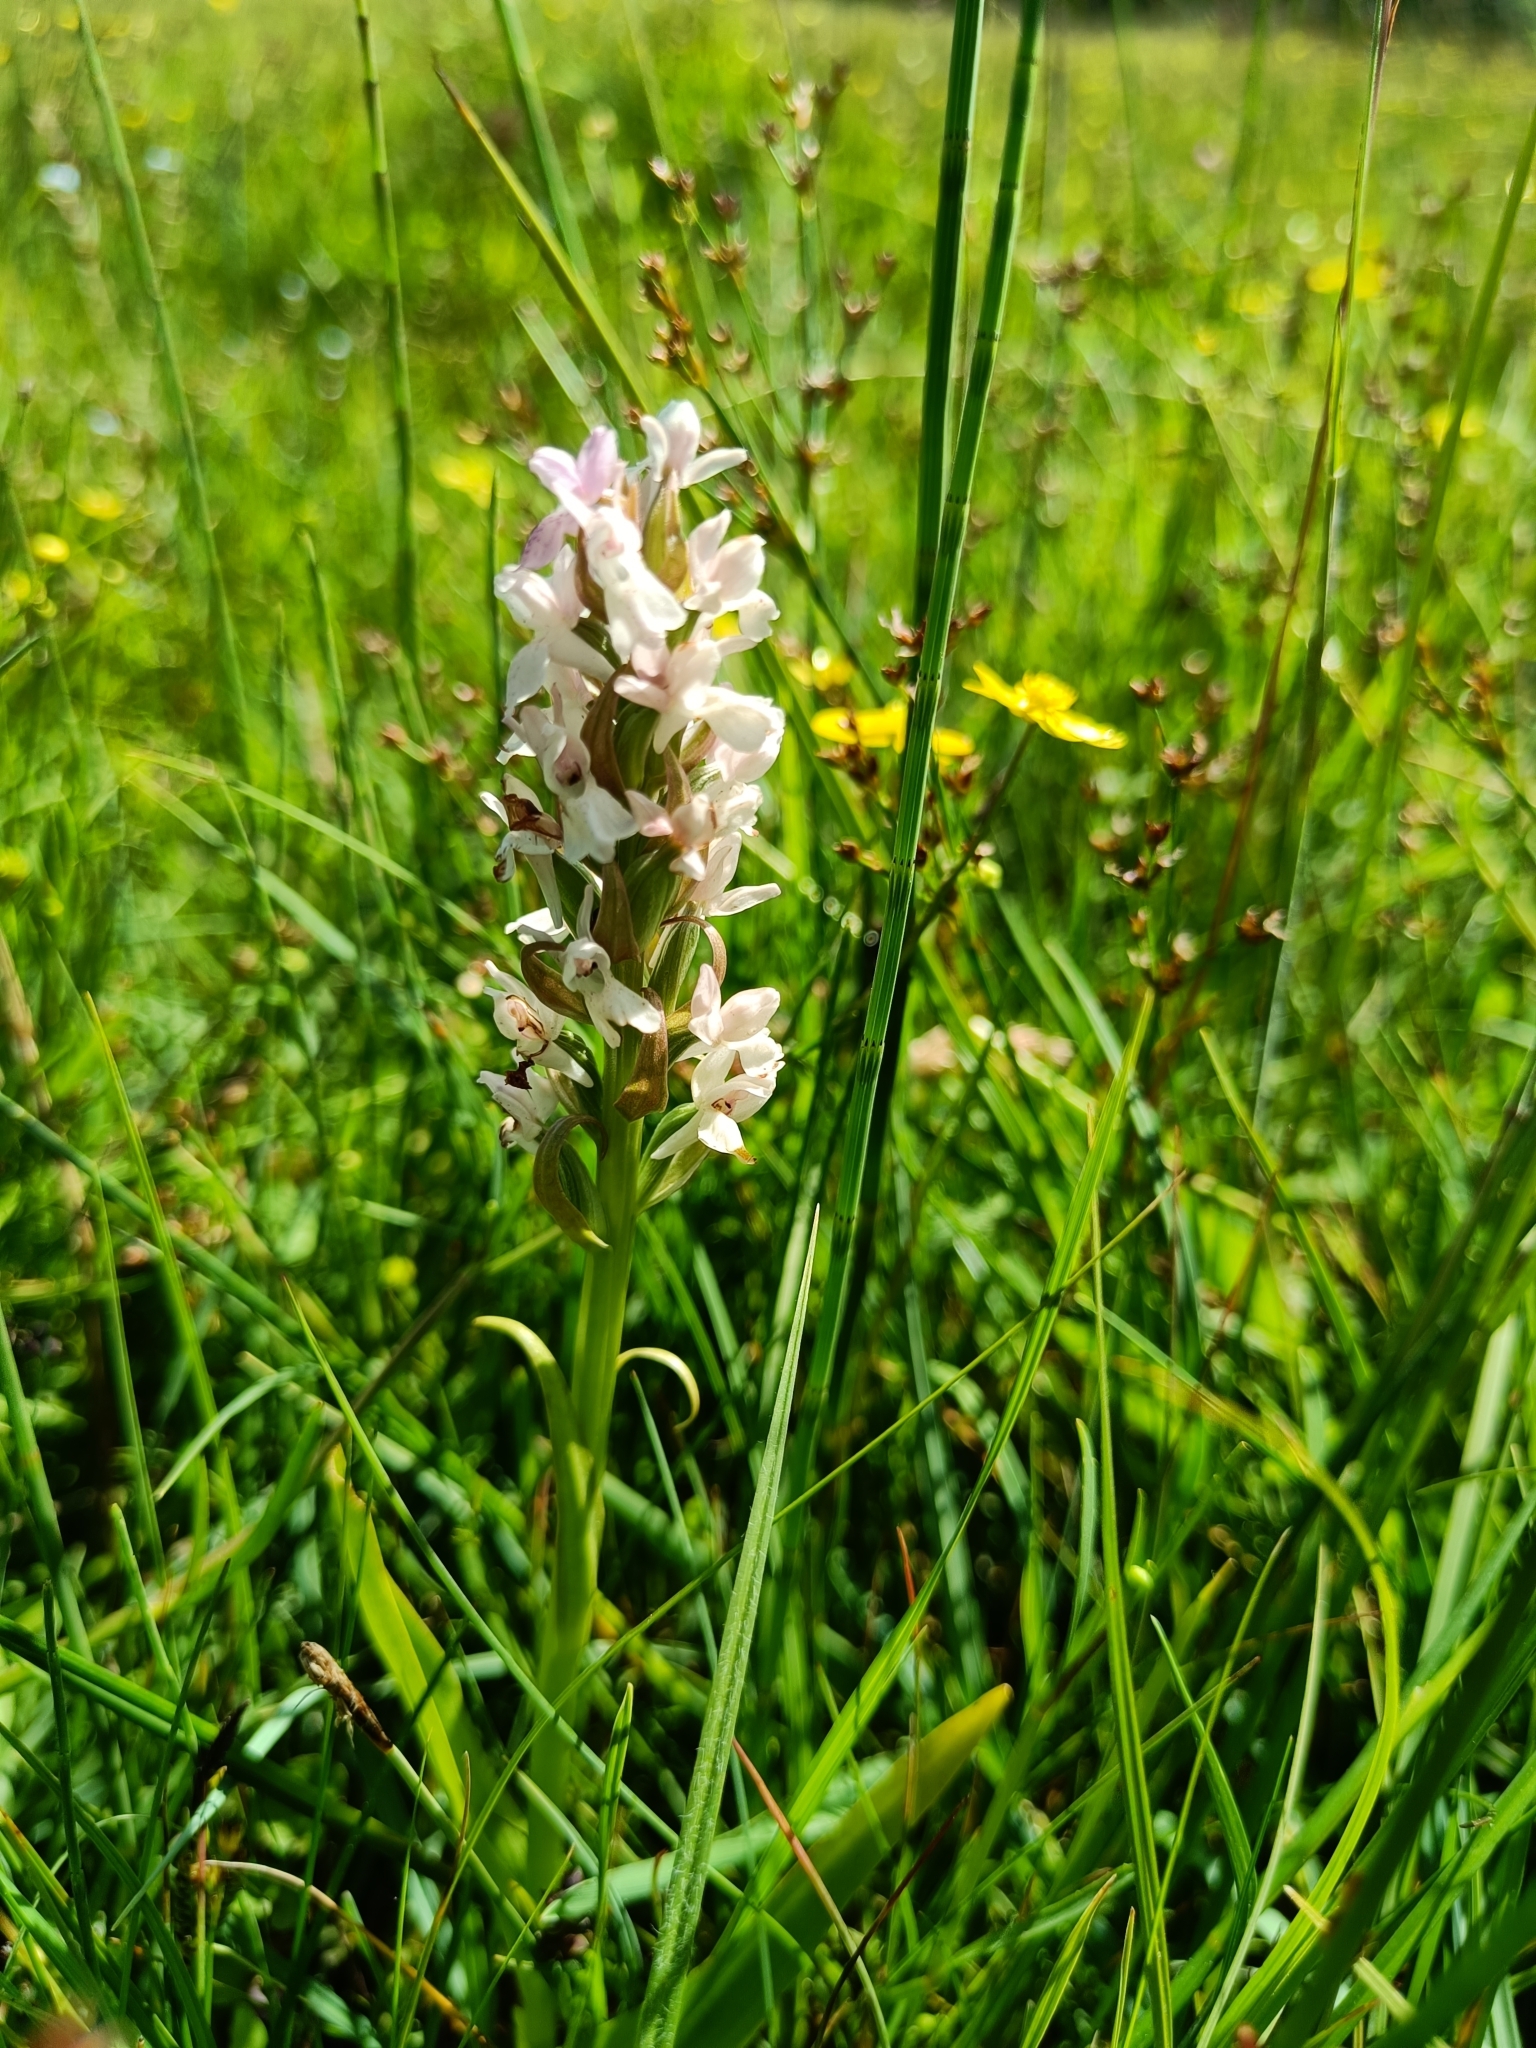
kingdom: Plantae
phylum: Tracheophyta
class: Liliopsida
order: Asparagales
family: Orchidaceae
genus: Dactylorhiza
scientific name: Dactylorhiza incarnata
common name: Early marsh-orchid
